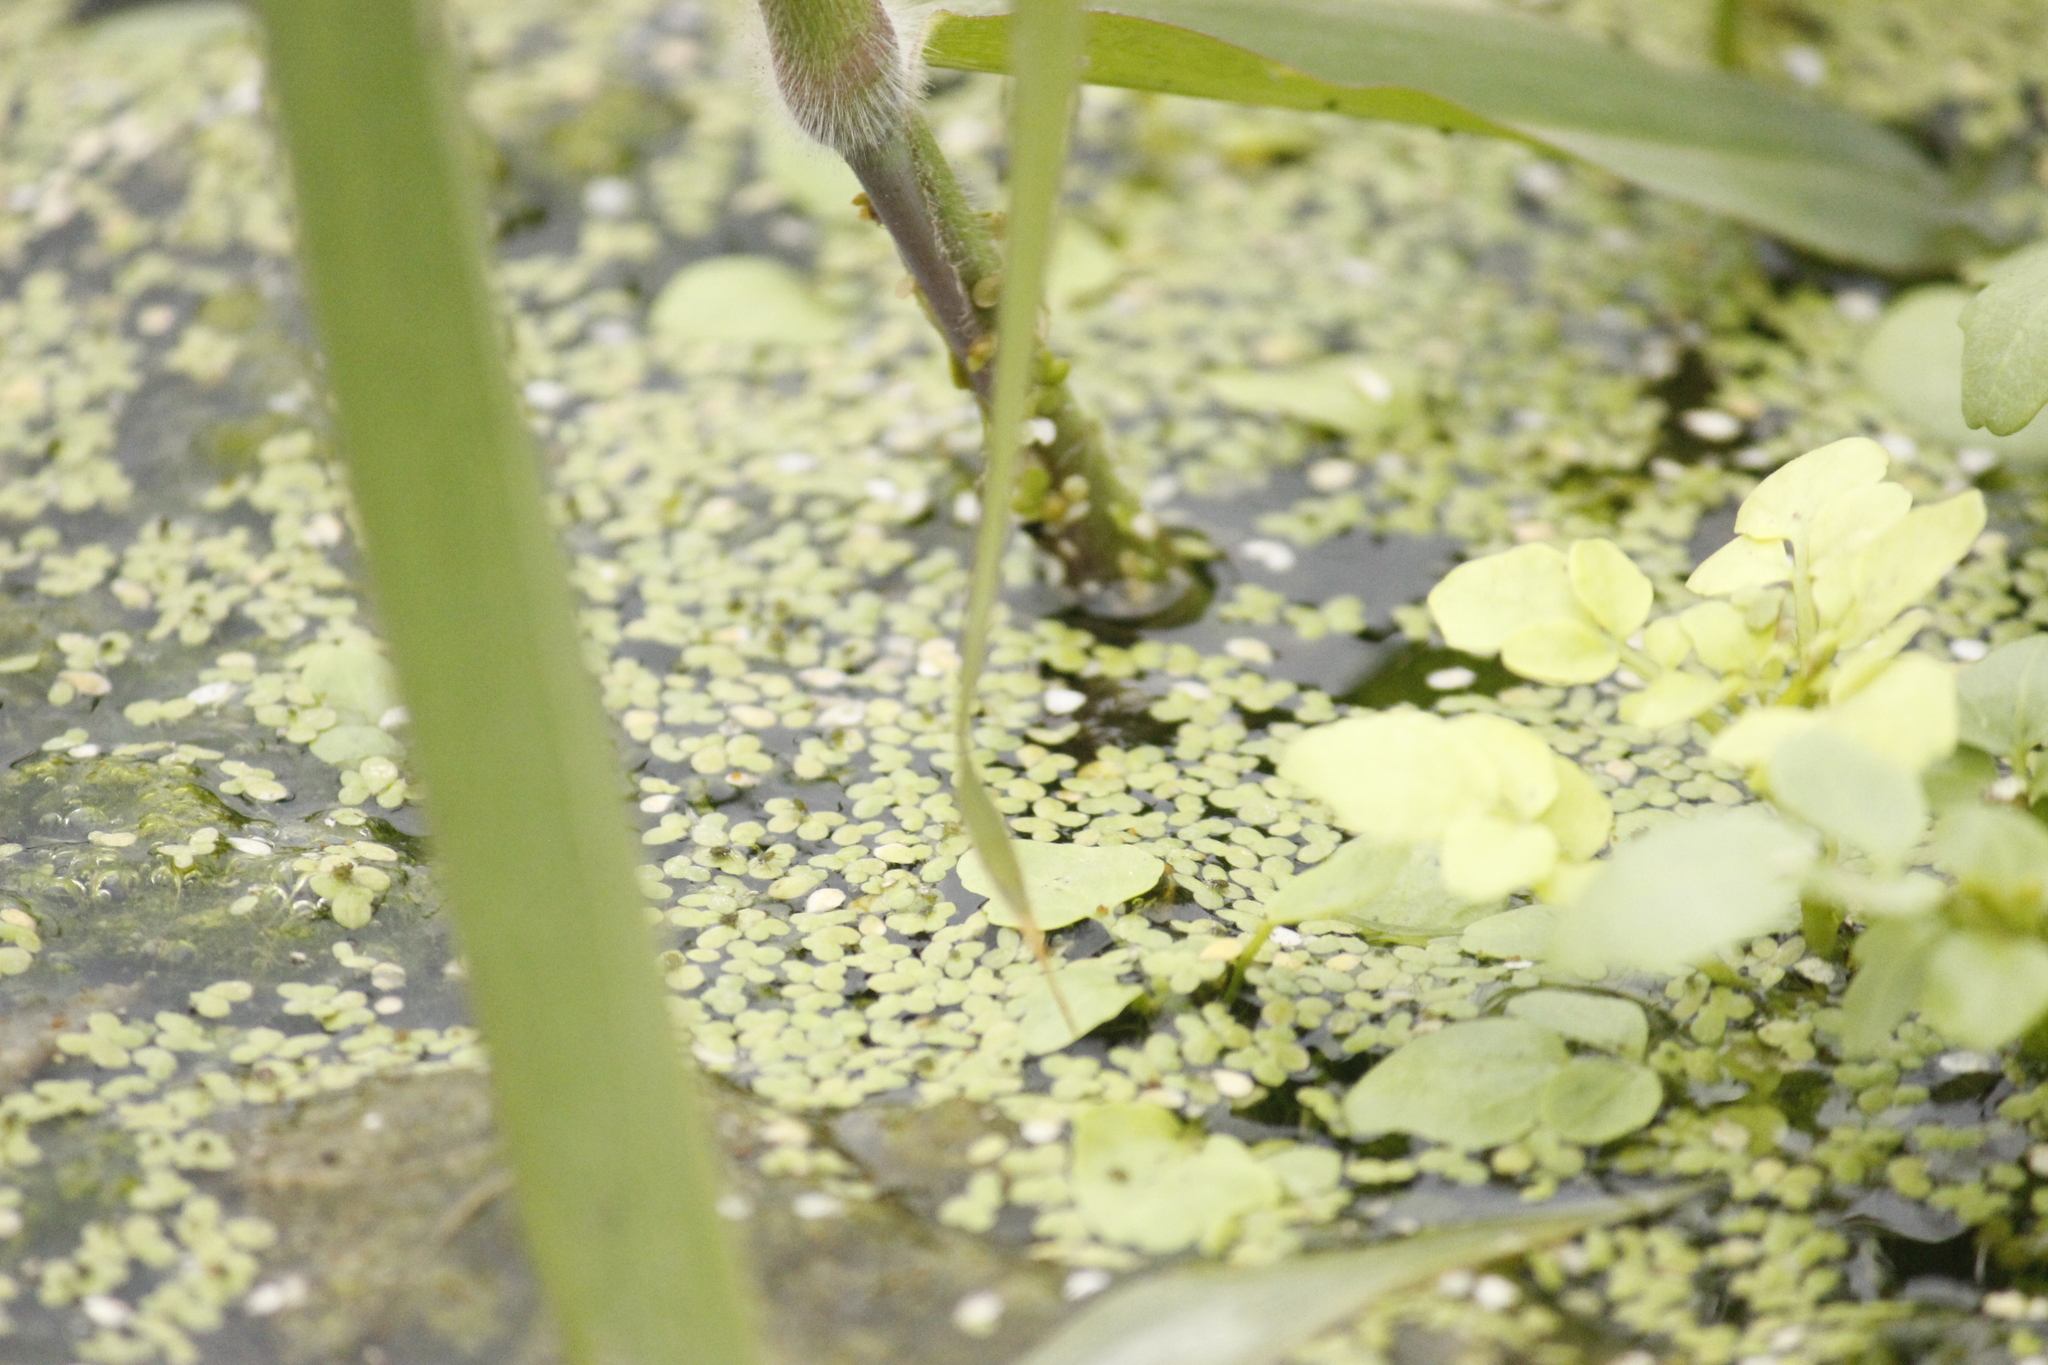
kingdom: Plantae
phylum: Tracheophyta
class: Liliopsida
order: Alismatales
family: Araceae
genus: Lemna
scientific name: Lemna minor
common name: Common duckweed
